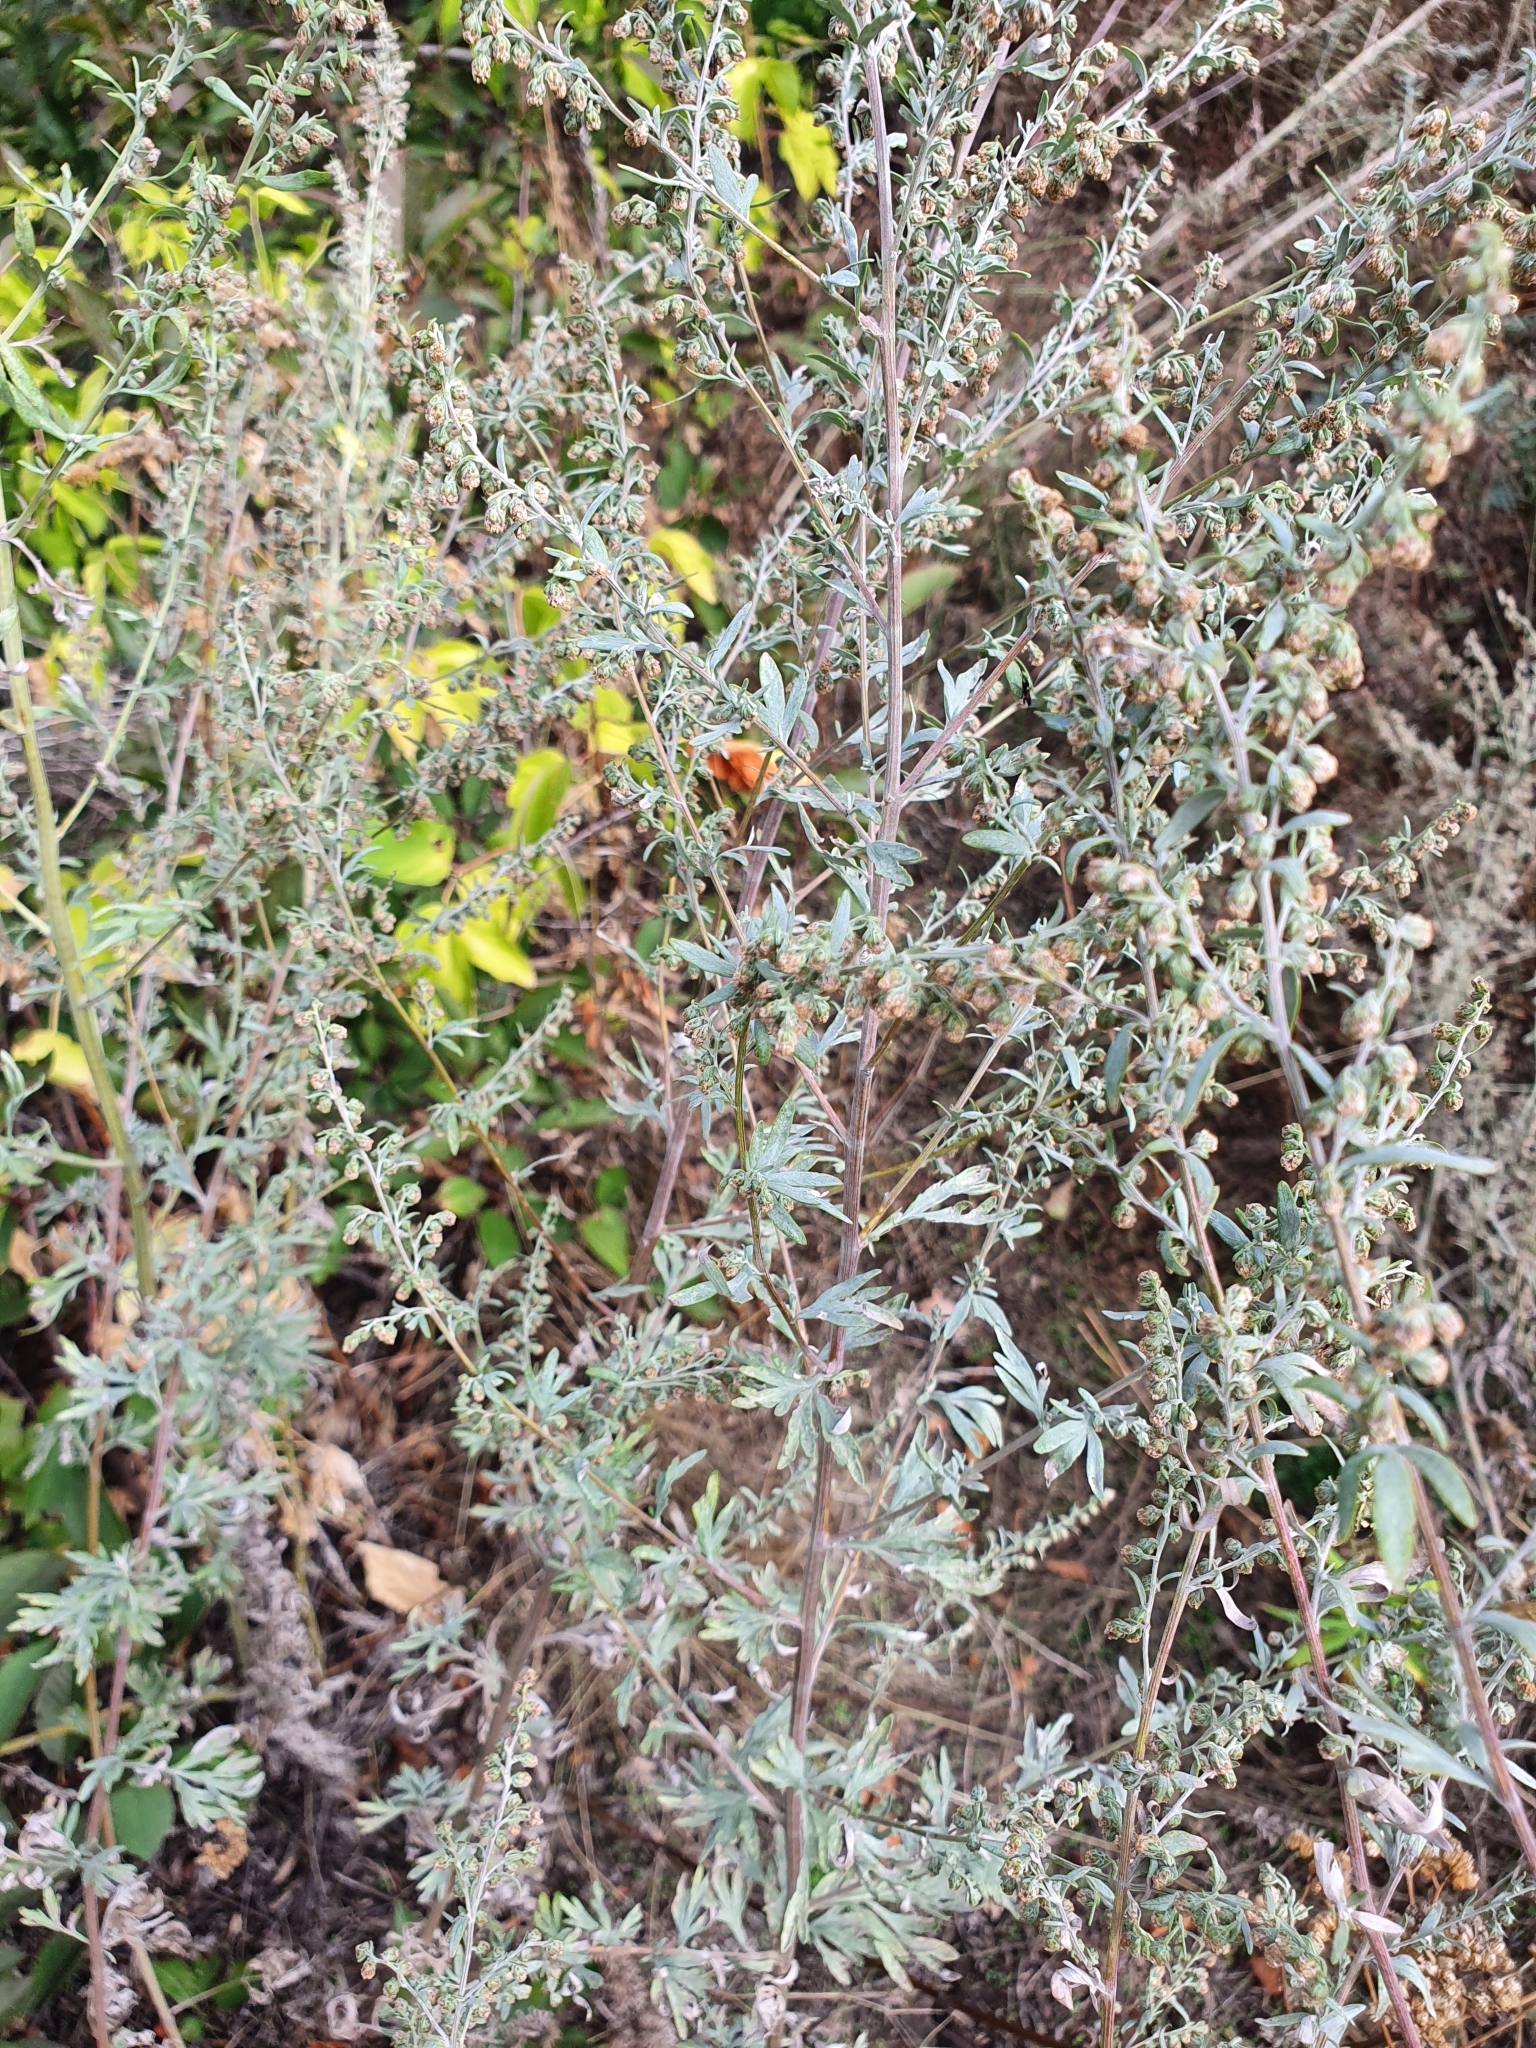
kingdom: Plantae
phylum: Tracheophyta
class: Magnoliopsida
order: Asterales
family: Asteraceae
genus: Artemisia
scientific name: Artemisia absinthium
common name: Wormwood
